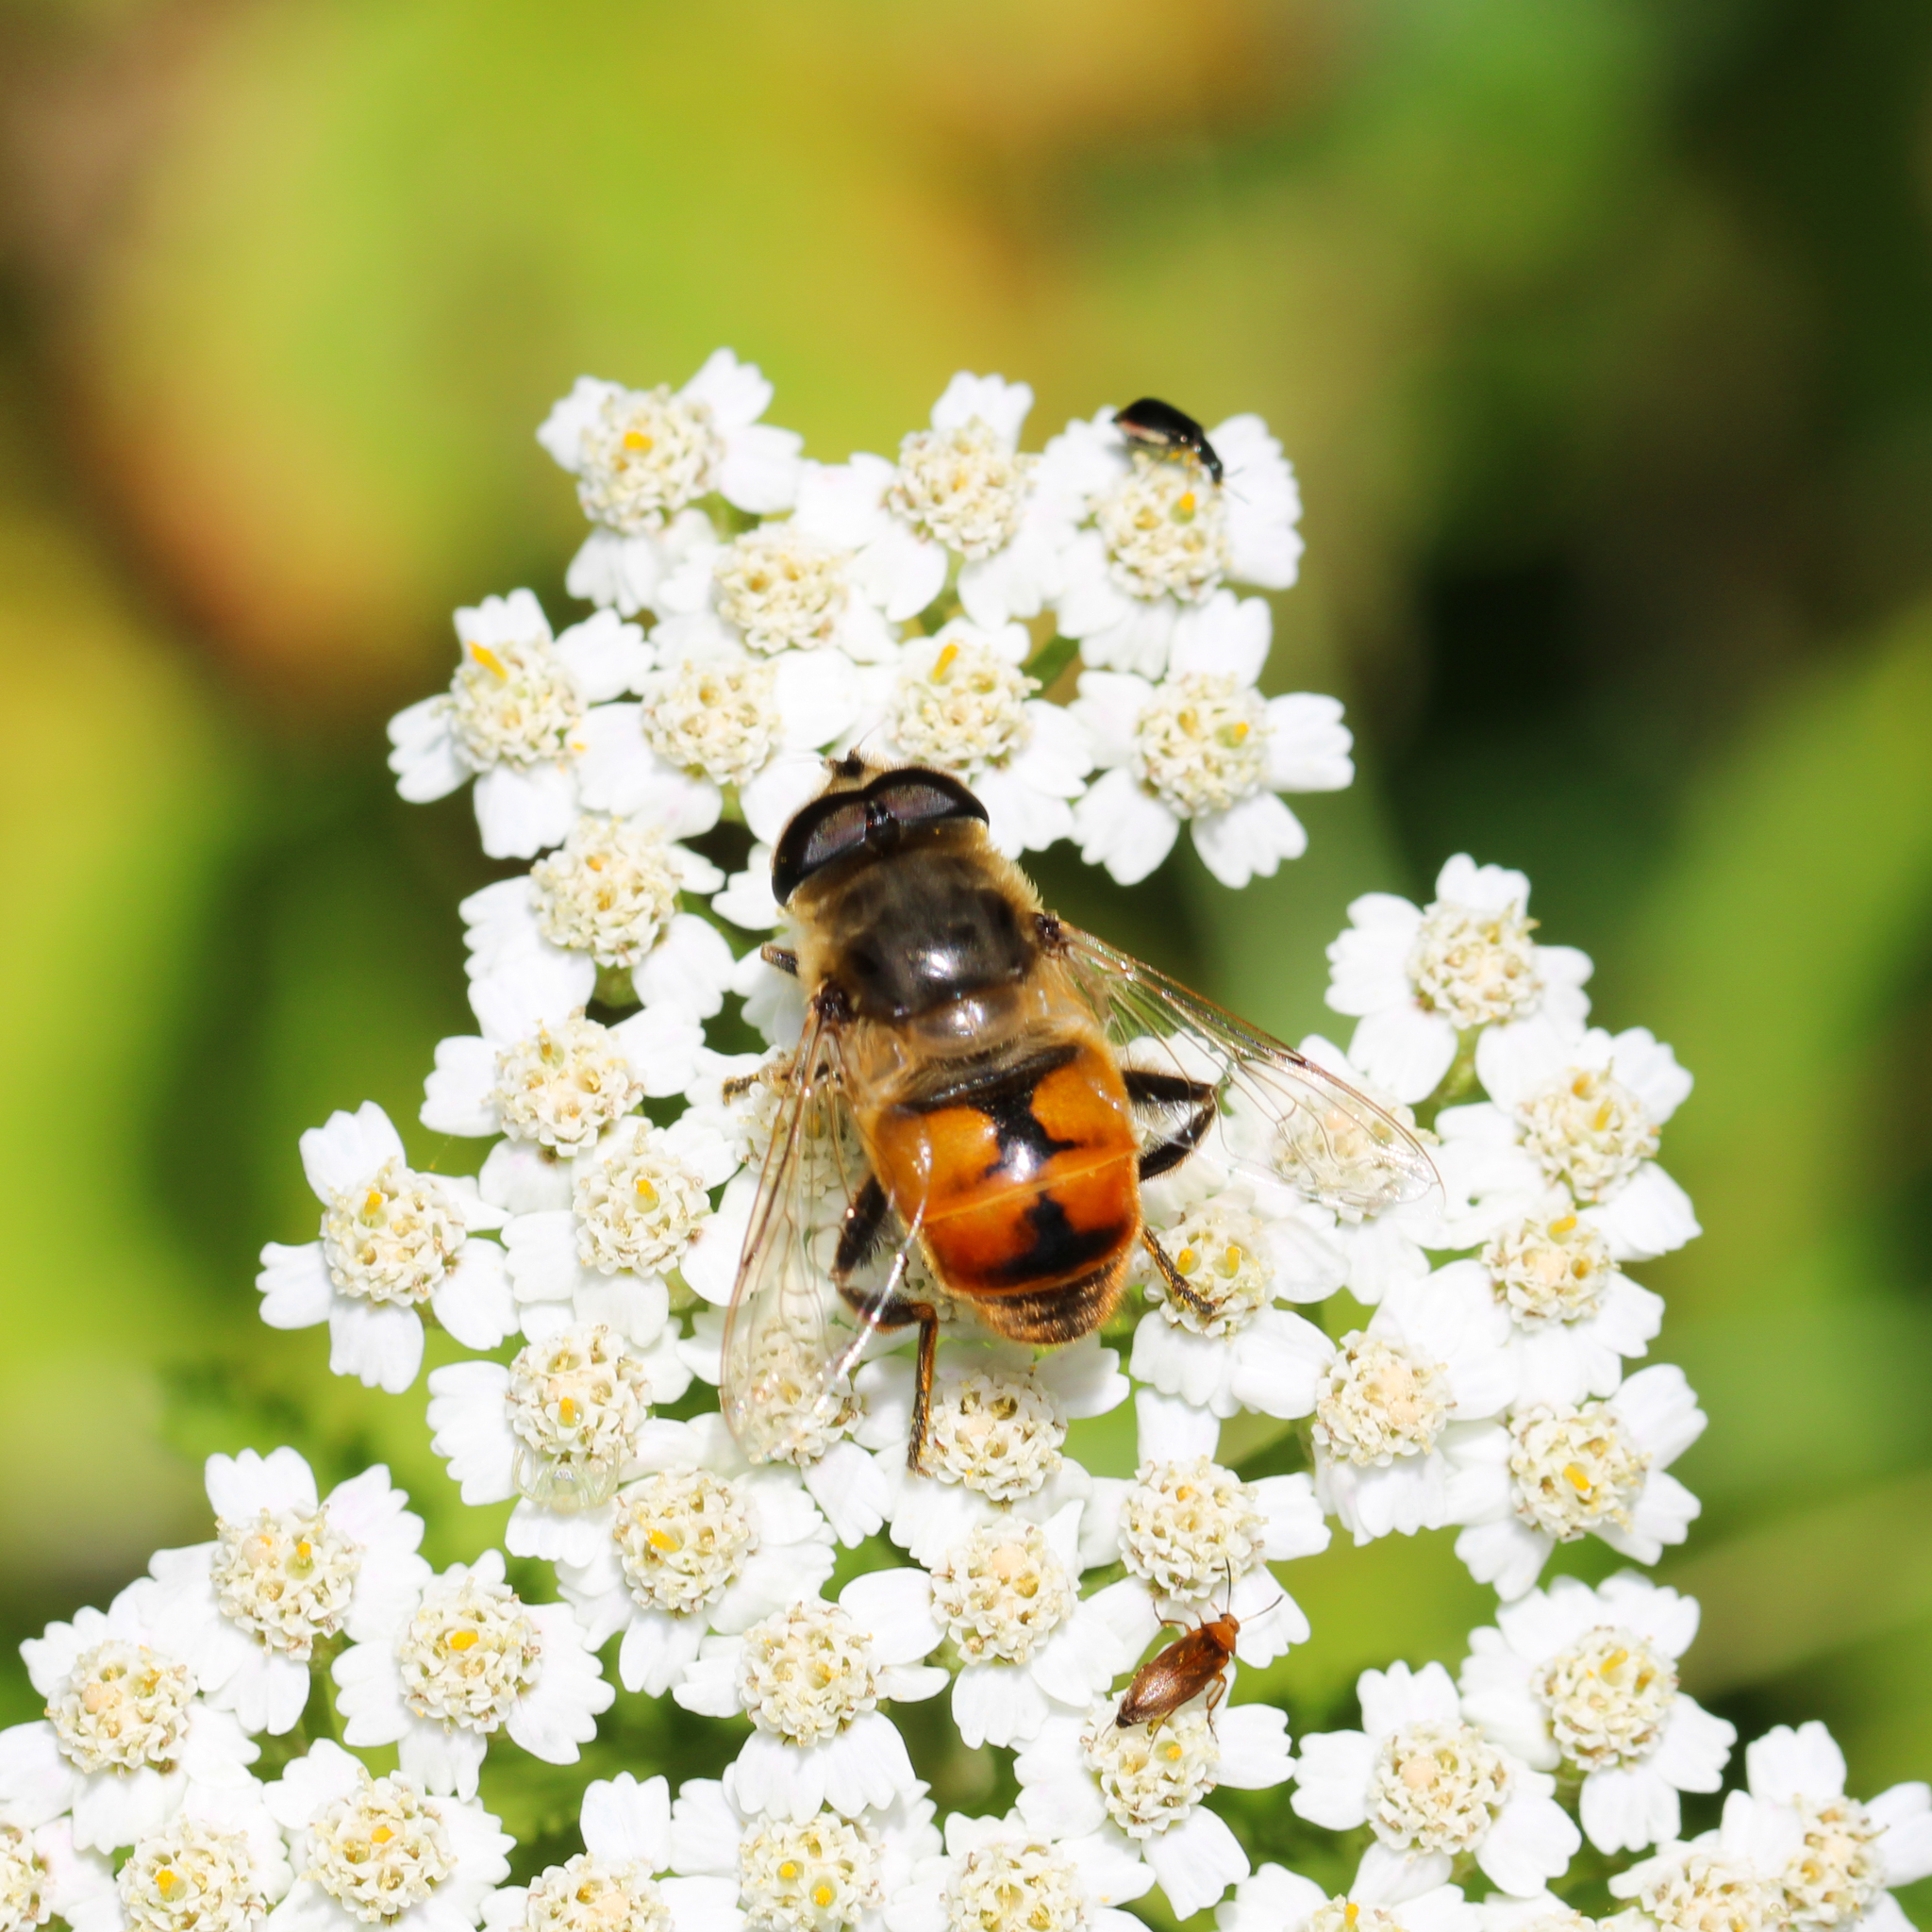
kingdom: Animalia
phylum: Arthropoda
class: Insecta
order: Diptera
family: Syrphidae
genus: Eristalis
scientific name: Eristalis tenax
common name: Drone fly
